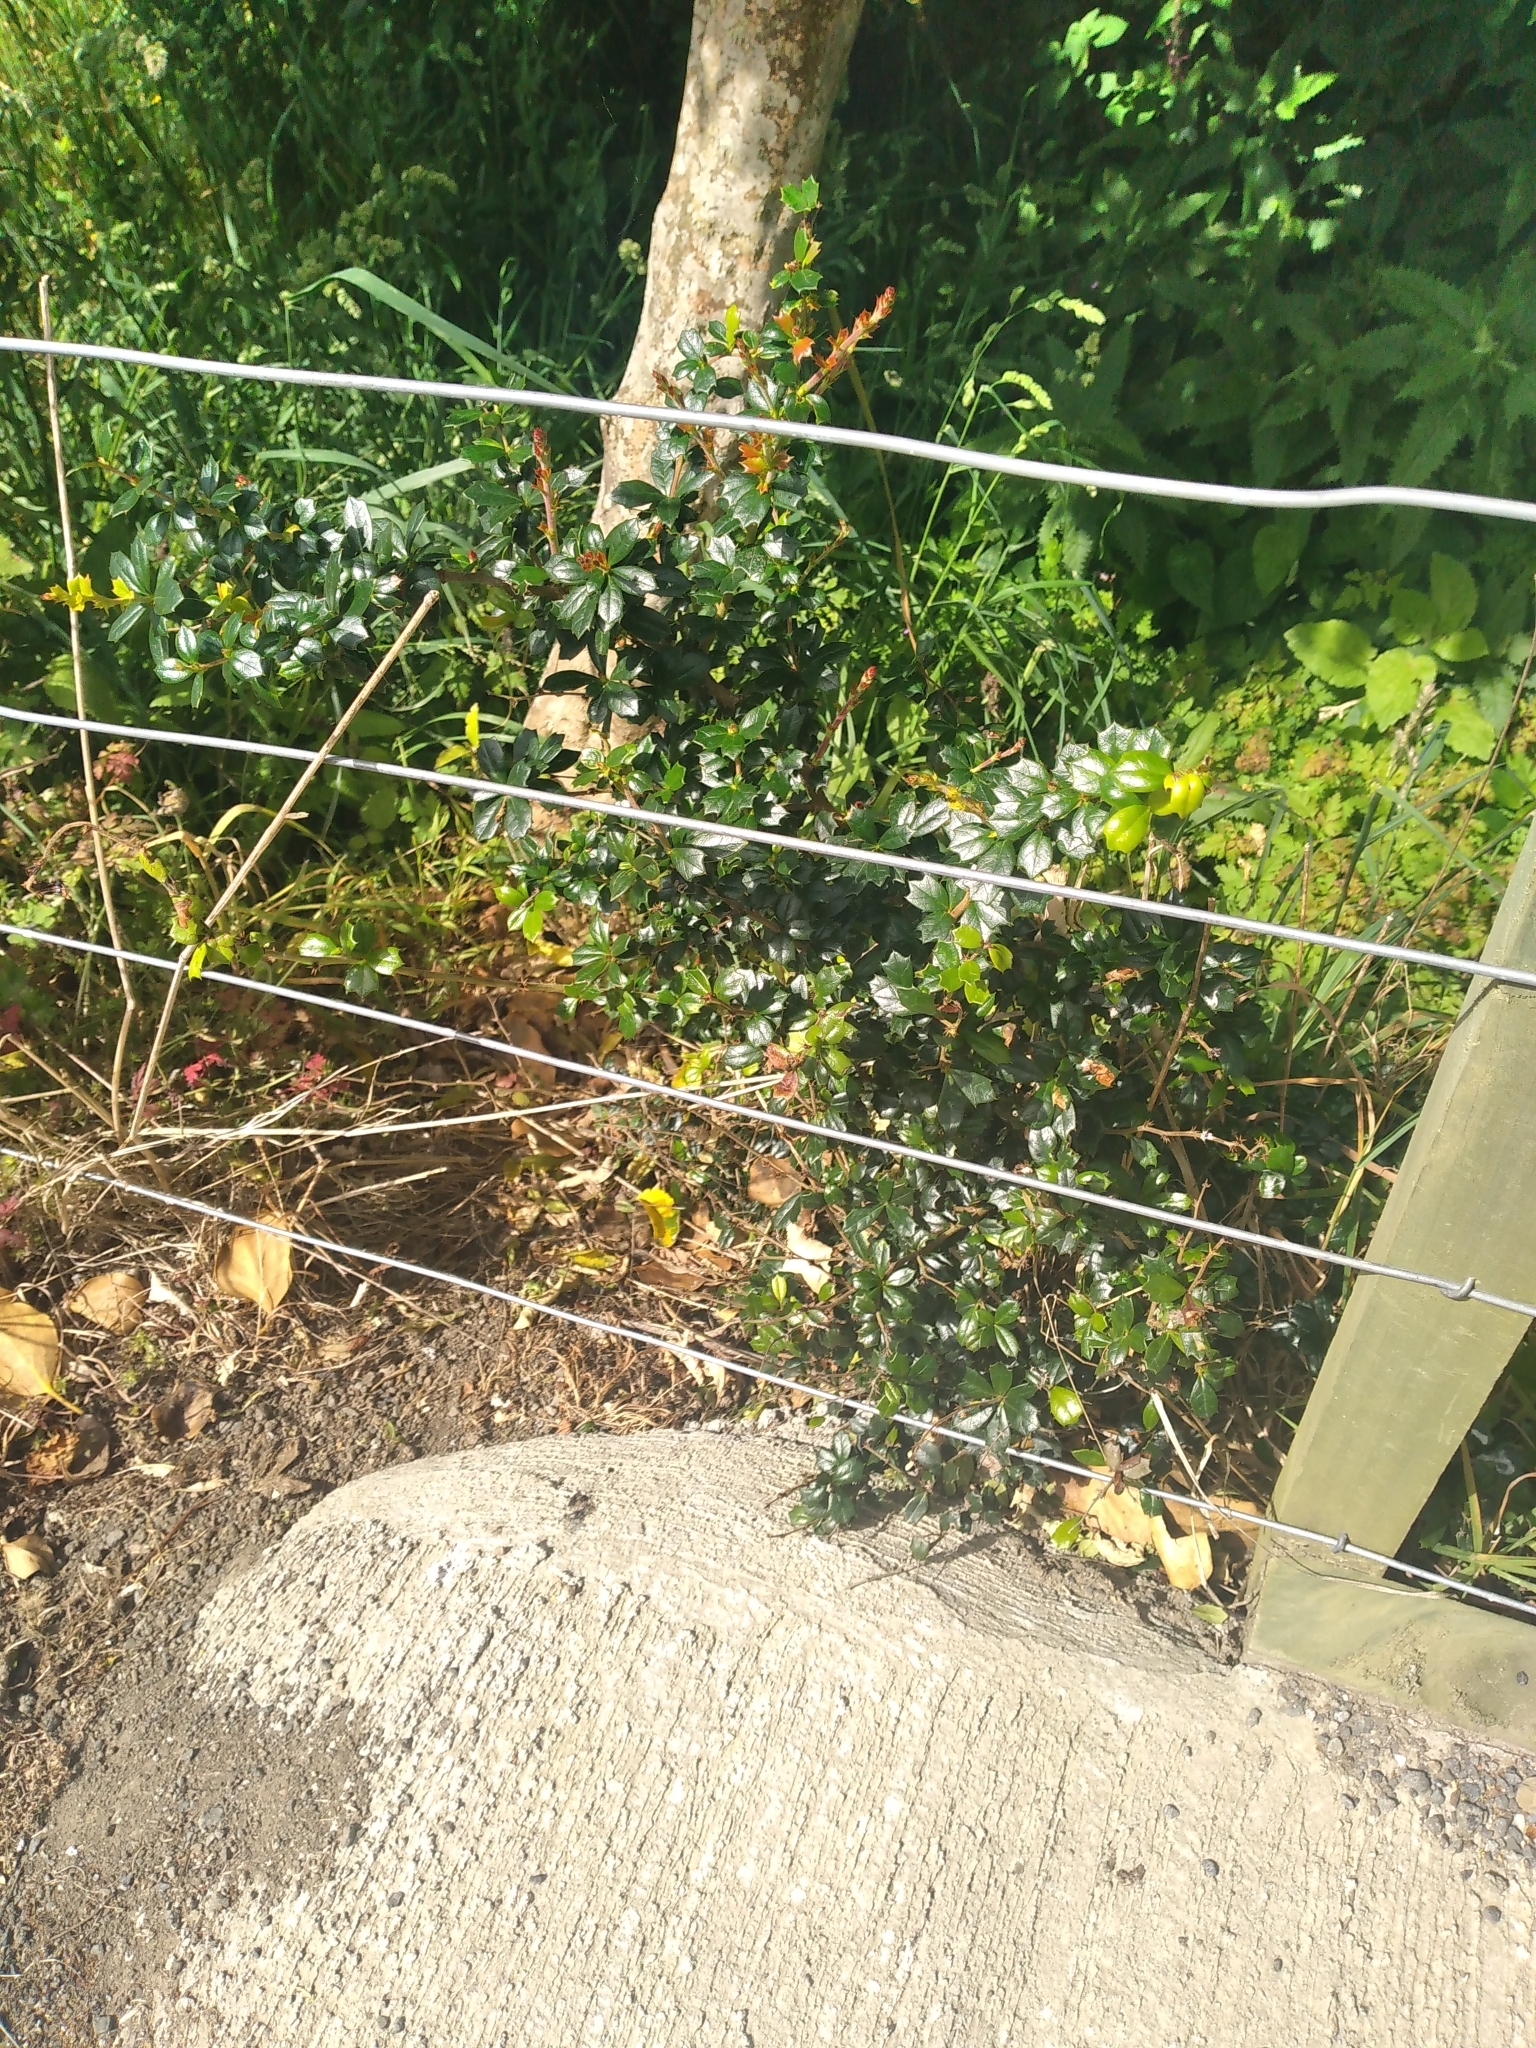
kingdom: Plantae
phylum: Tracheophyta
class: Magnoliopsida
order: Ranunculales
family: Berberidaceae
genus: Berberis
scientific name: Berberis darwinii
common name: Darwin's barberry
